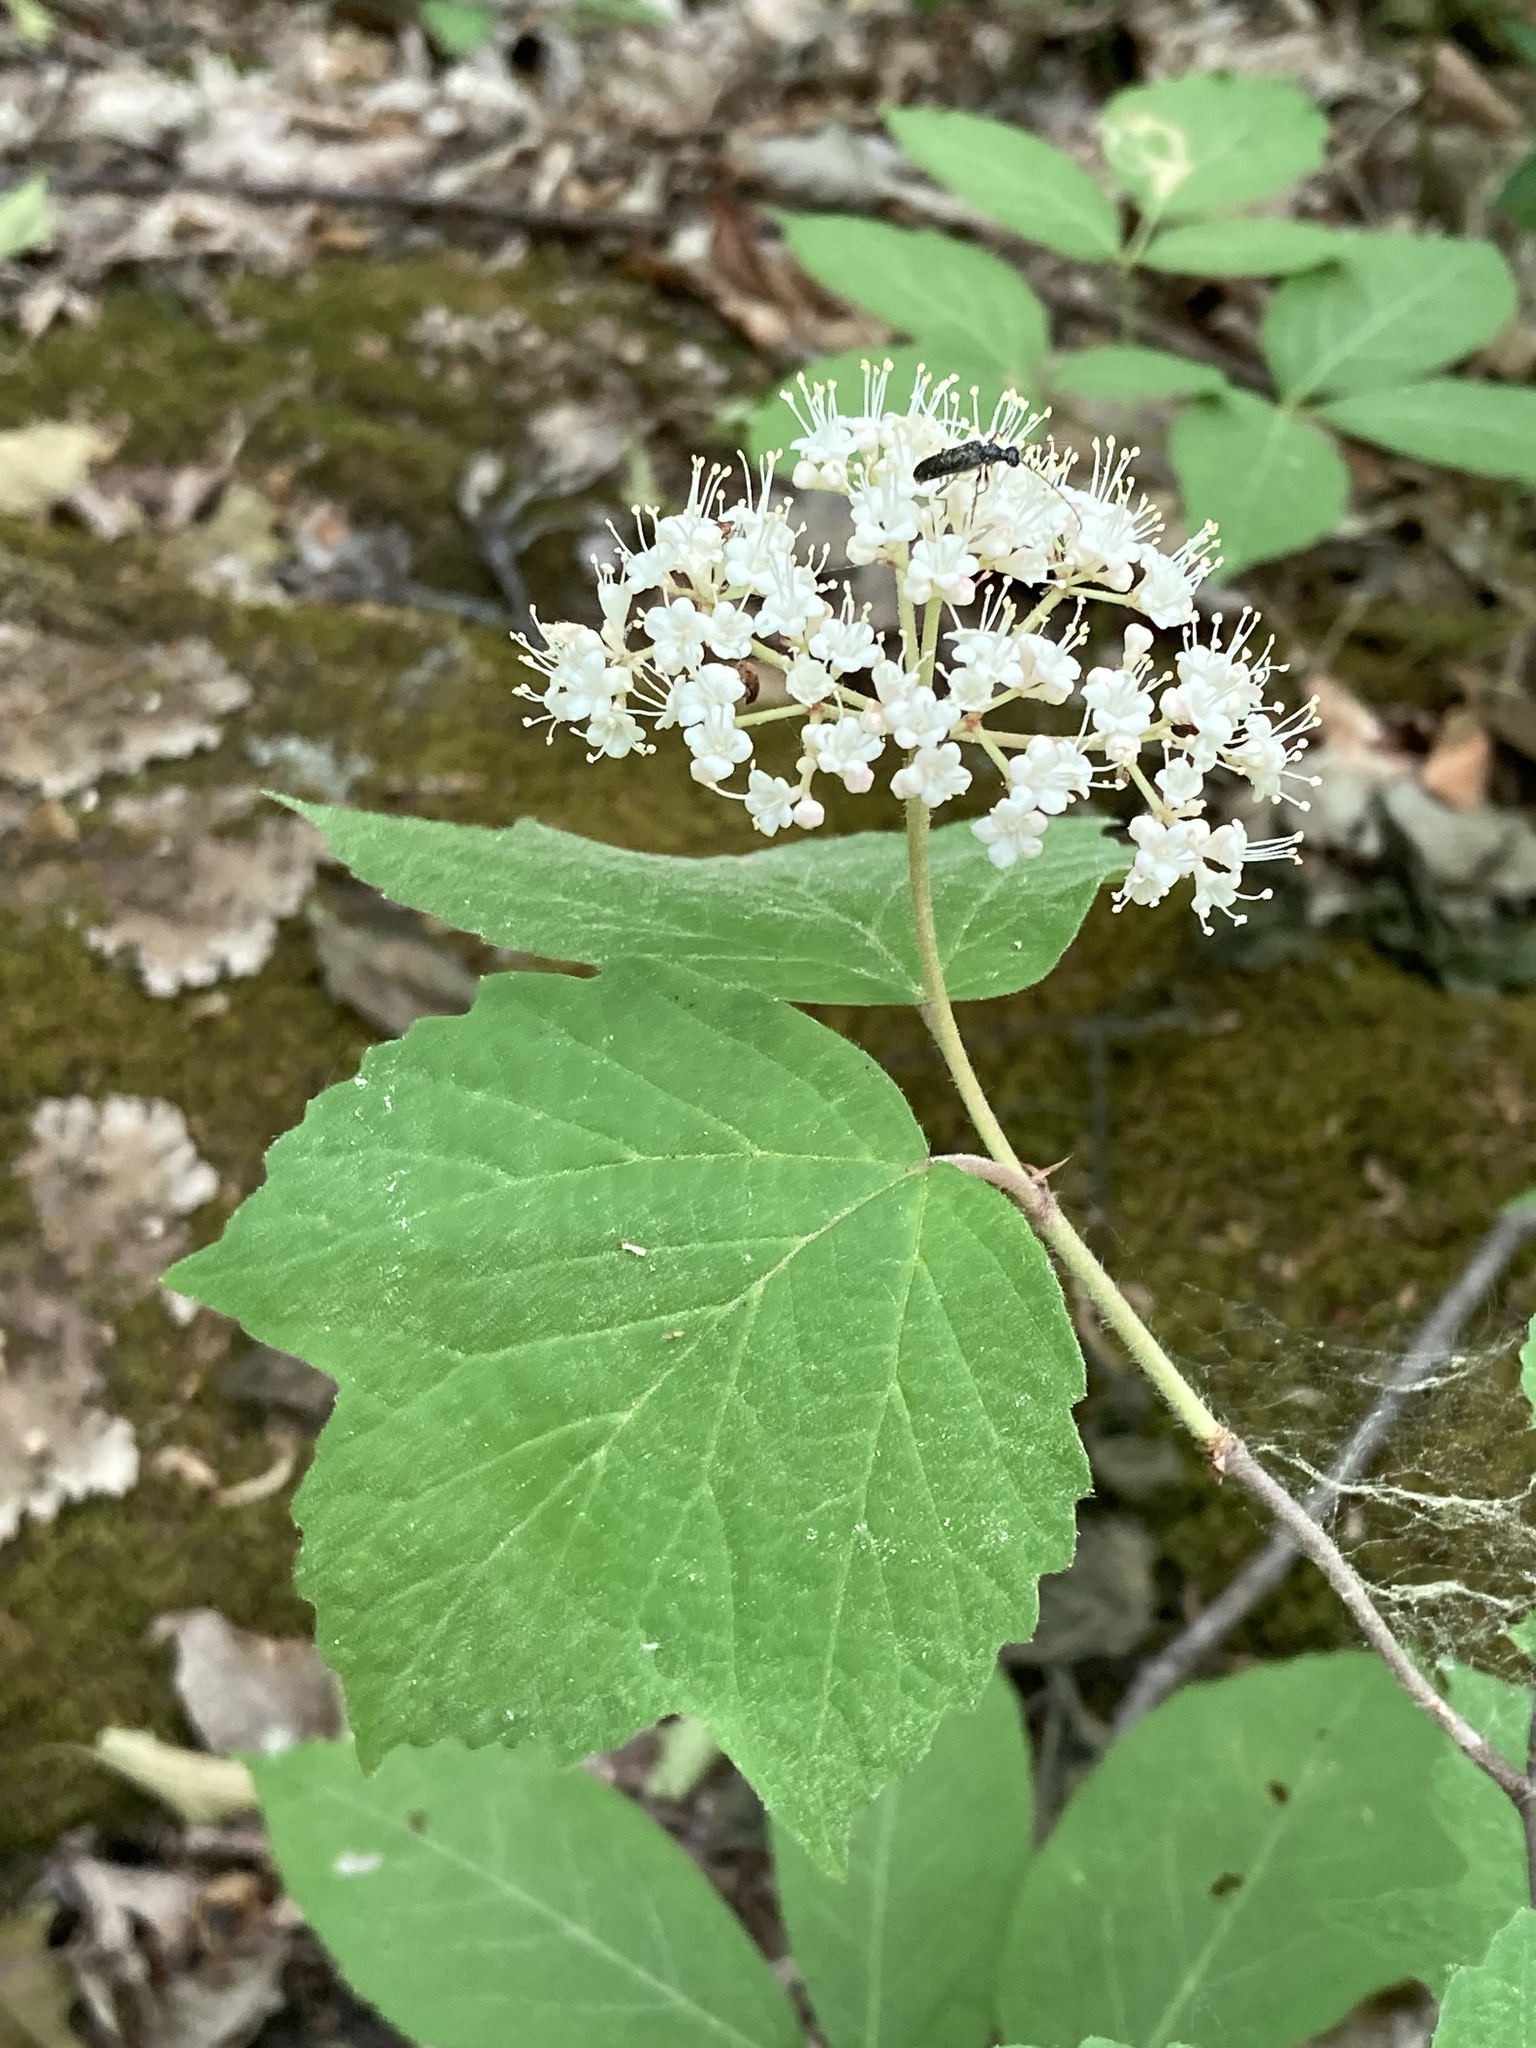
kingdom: Plantae
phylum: Tracheophyta
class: Magnoliopsida
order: Dipsacales
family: Viburnaceae
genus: Viburnum
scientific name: Viburnum acerifolium
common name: Dockmackie
